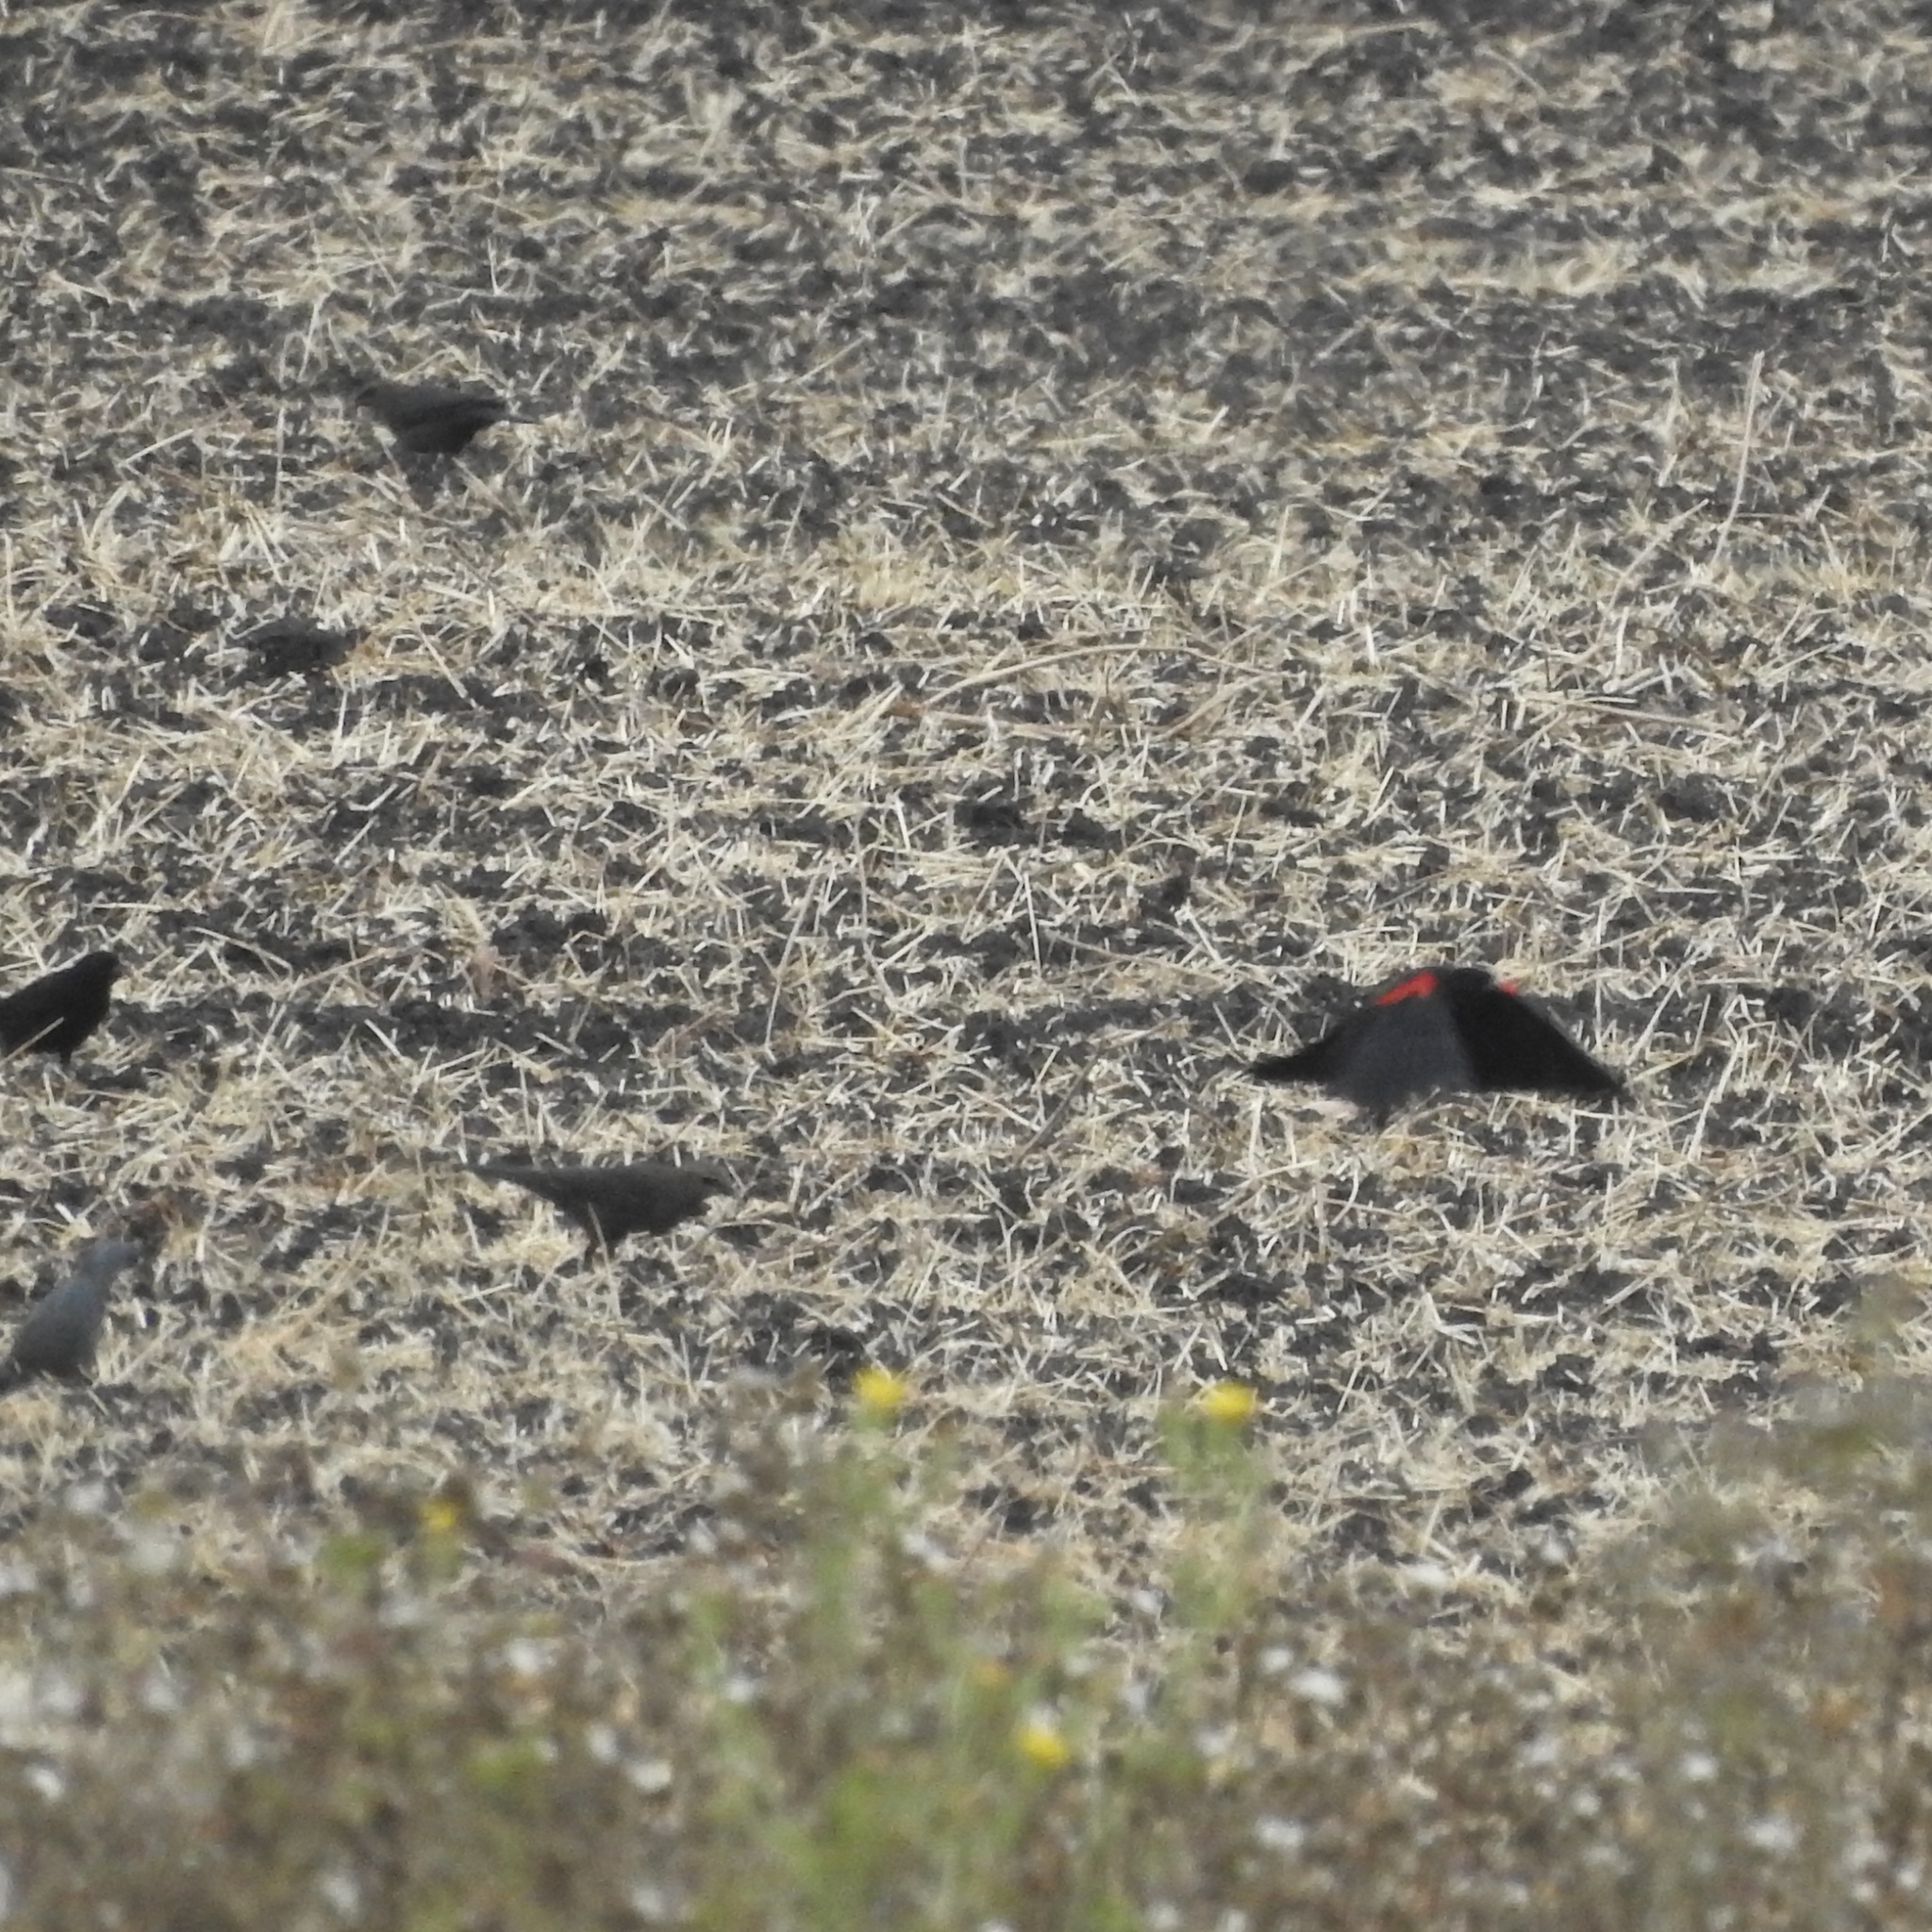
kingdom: Animalia
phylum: Chordata
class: Aves
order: Passeriformes
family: Icteridae
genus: Agelaius
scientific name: Agelaius phoeniceus
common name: Red-winged blackbird
